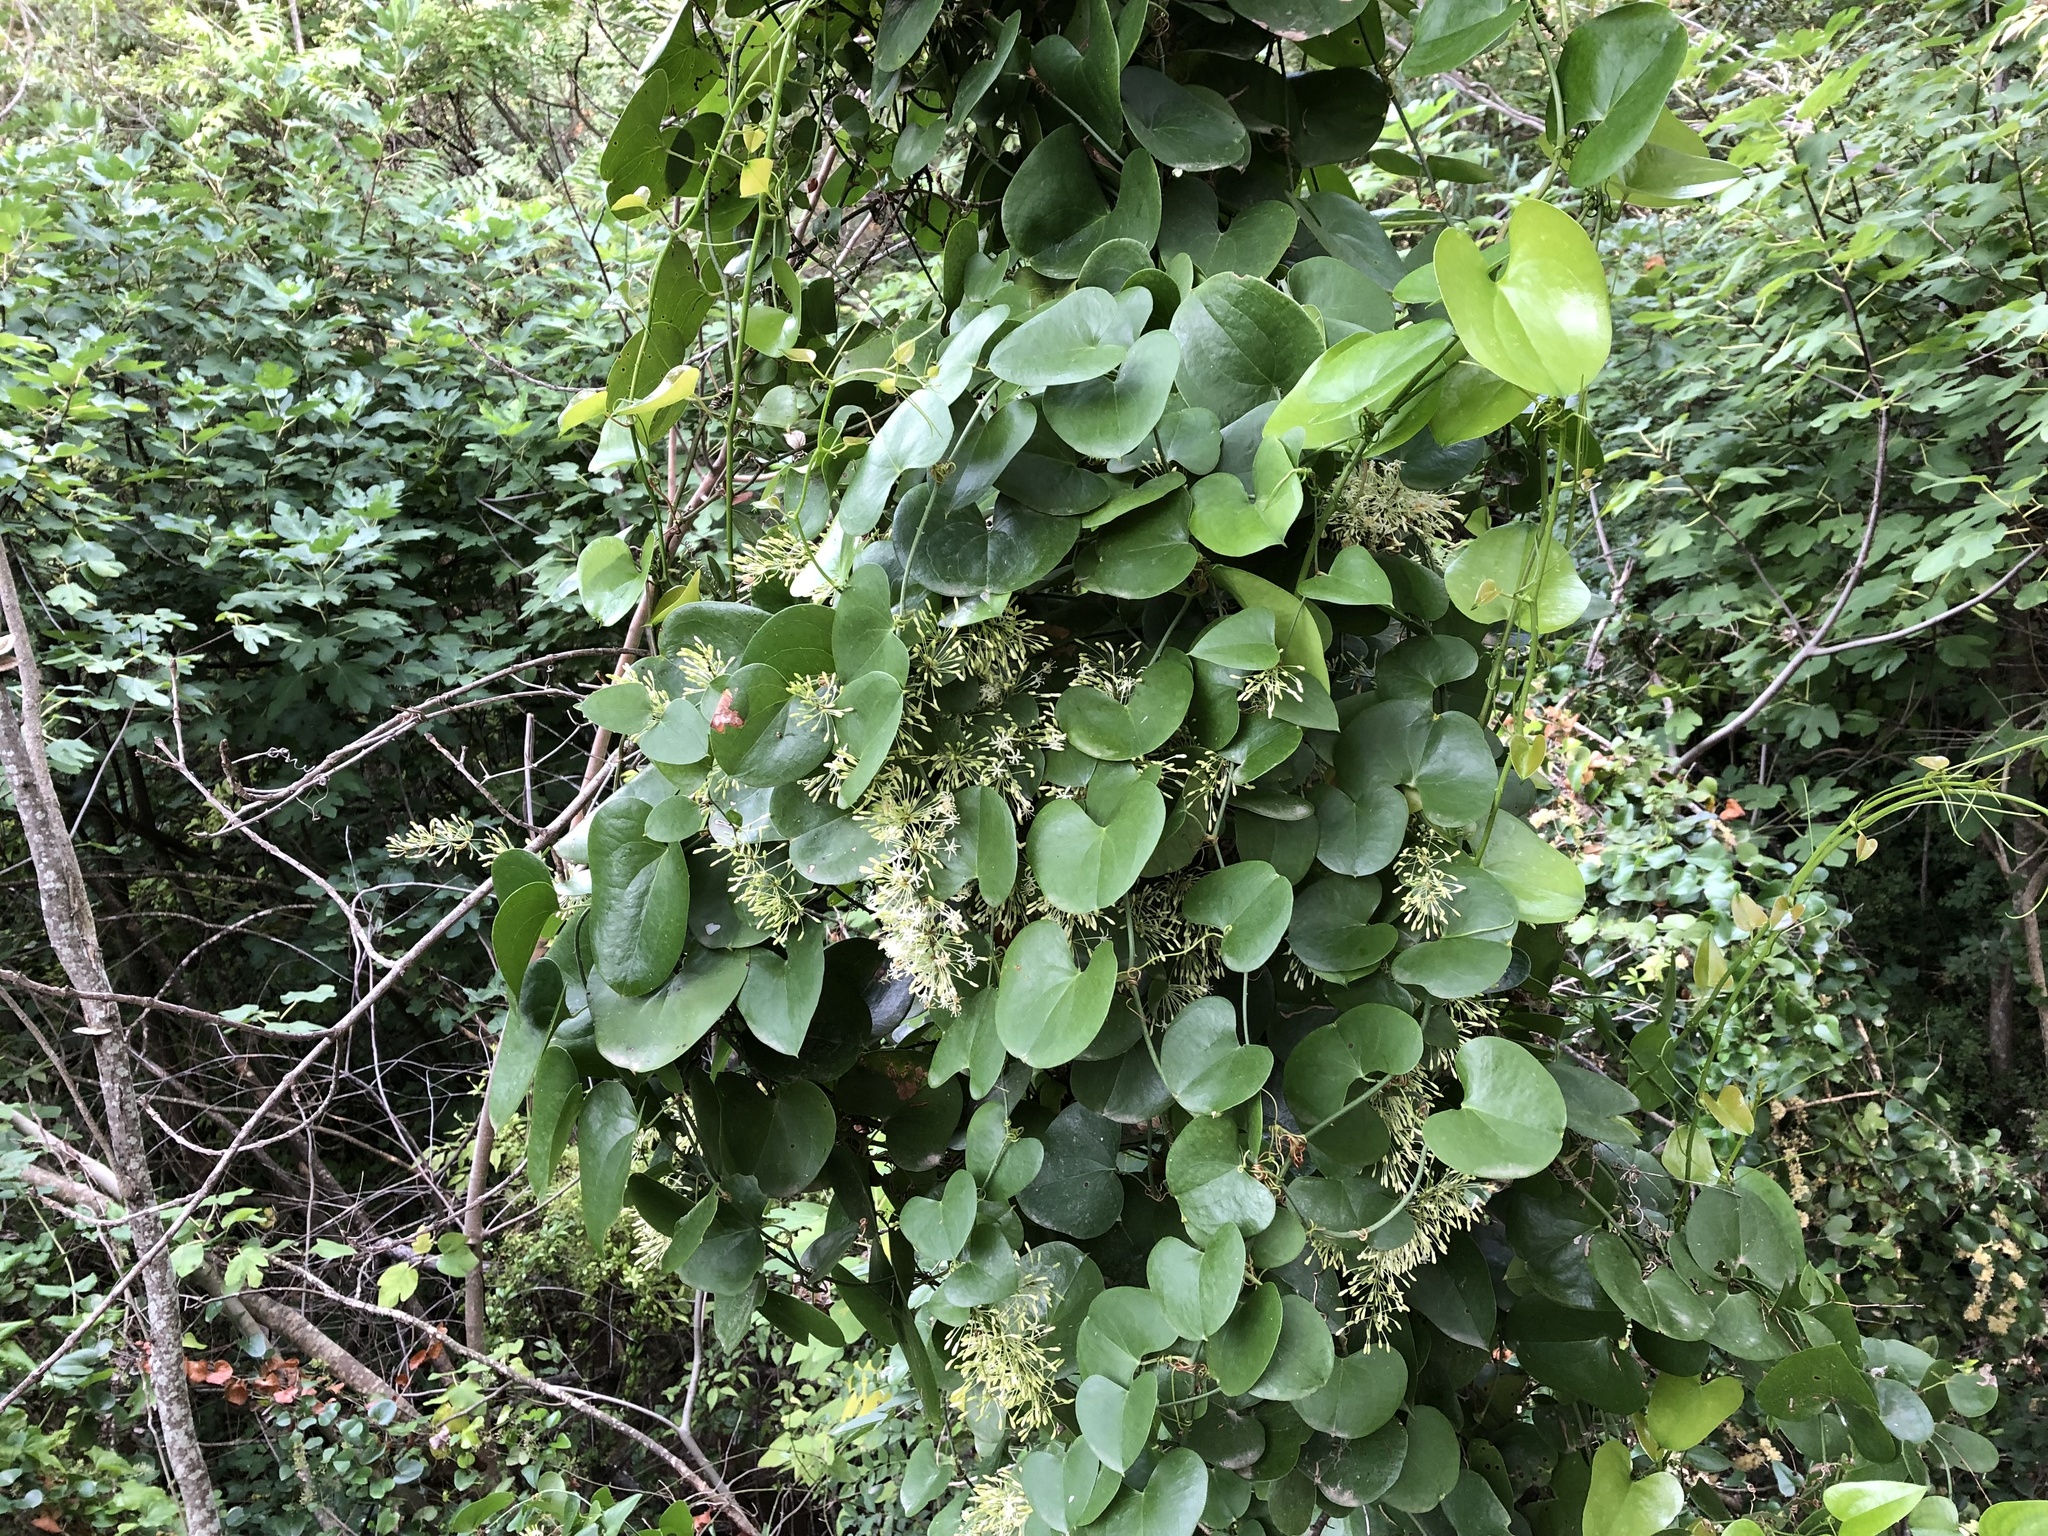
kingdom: Plantae
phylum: Tracheophyta
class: Liliopsida
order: Liliales
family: Smilacaceae
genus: Smilax
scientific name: Smilax aspera
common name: Common smilax
